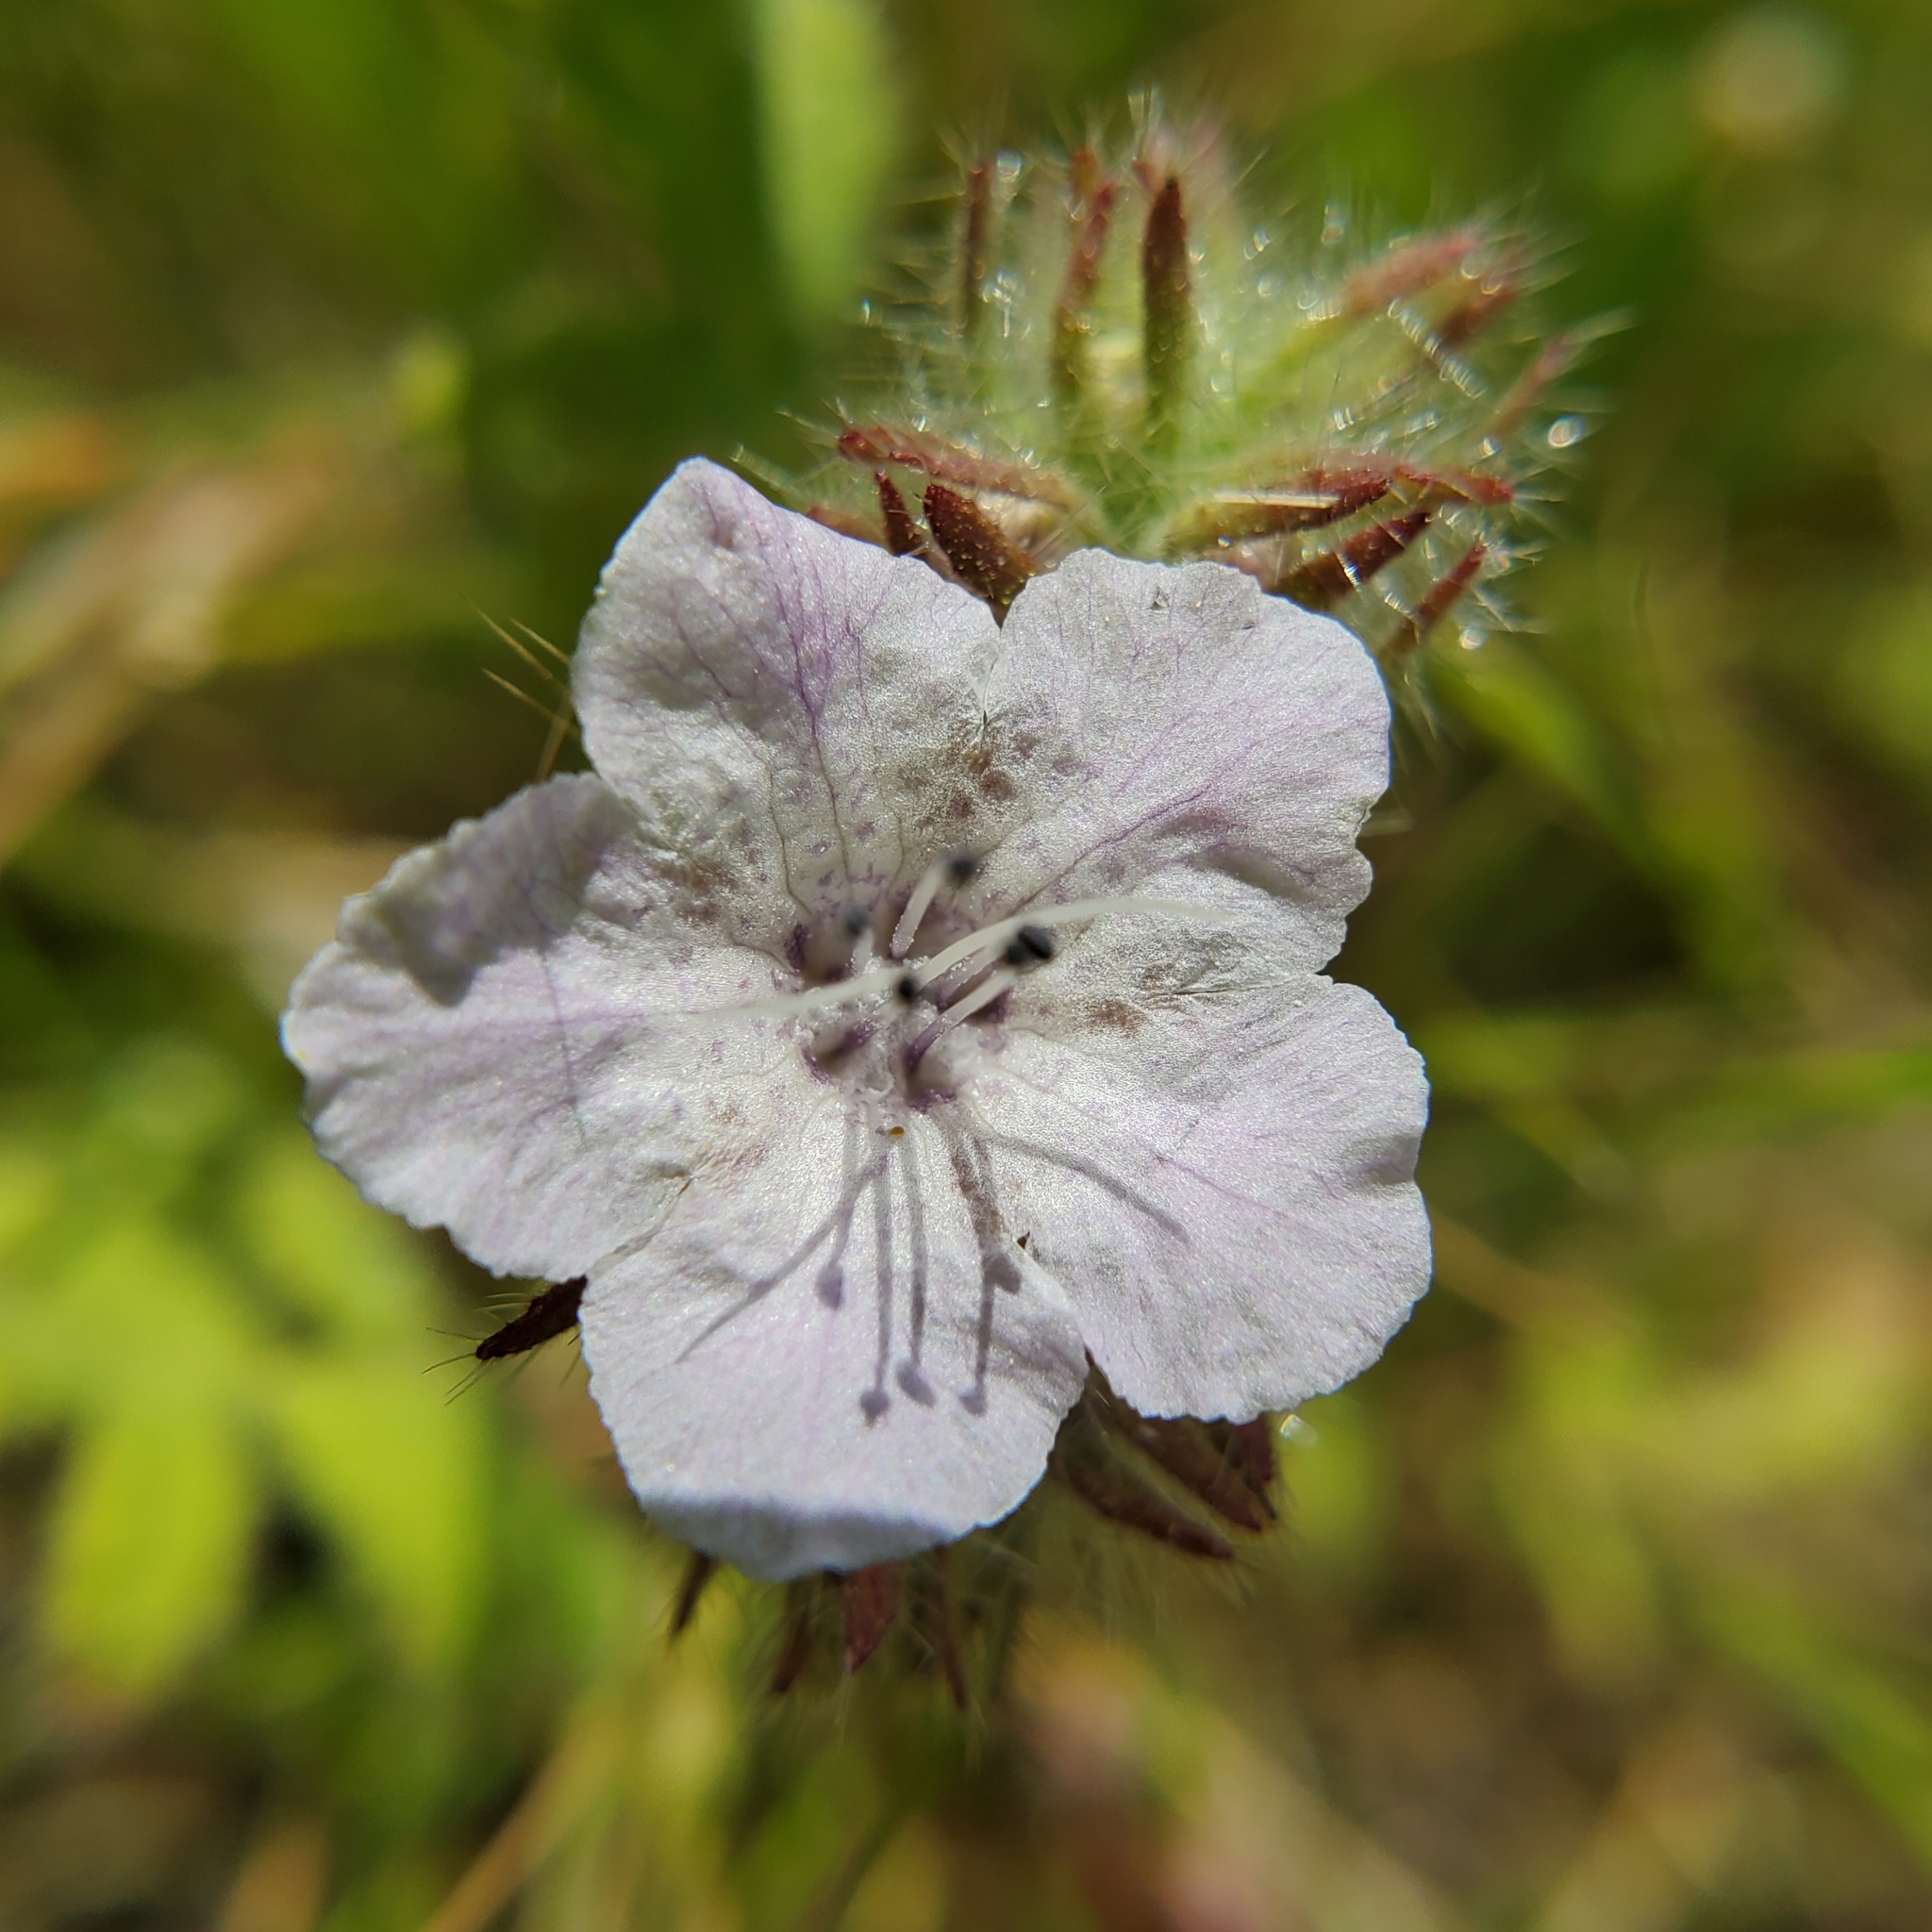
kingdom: Plantae
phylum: Tracheophyta
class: Magnoliopsida
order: Boraginales
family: Hydrophyllaceae
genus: Phacelia
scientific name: Phacelia cicutaria
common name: Caterpillar phacelia
